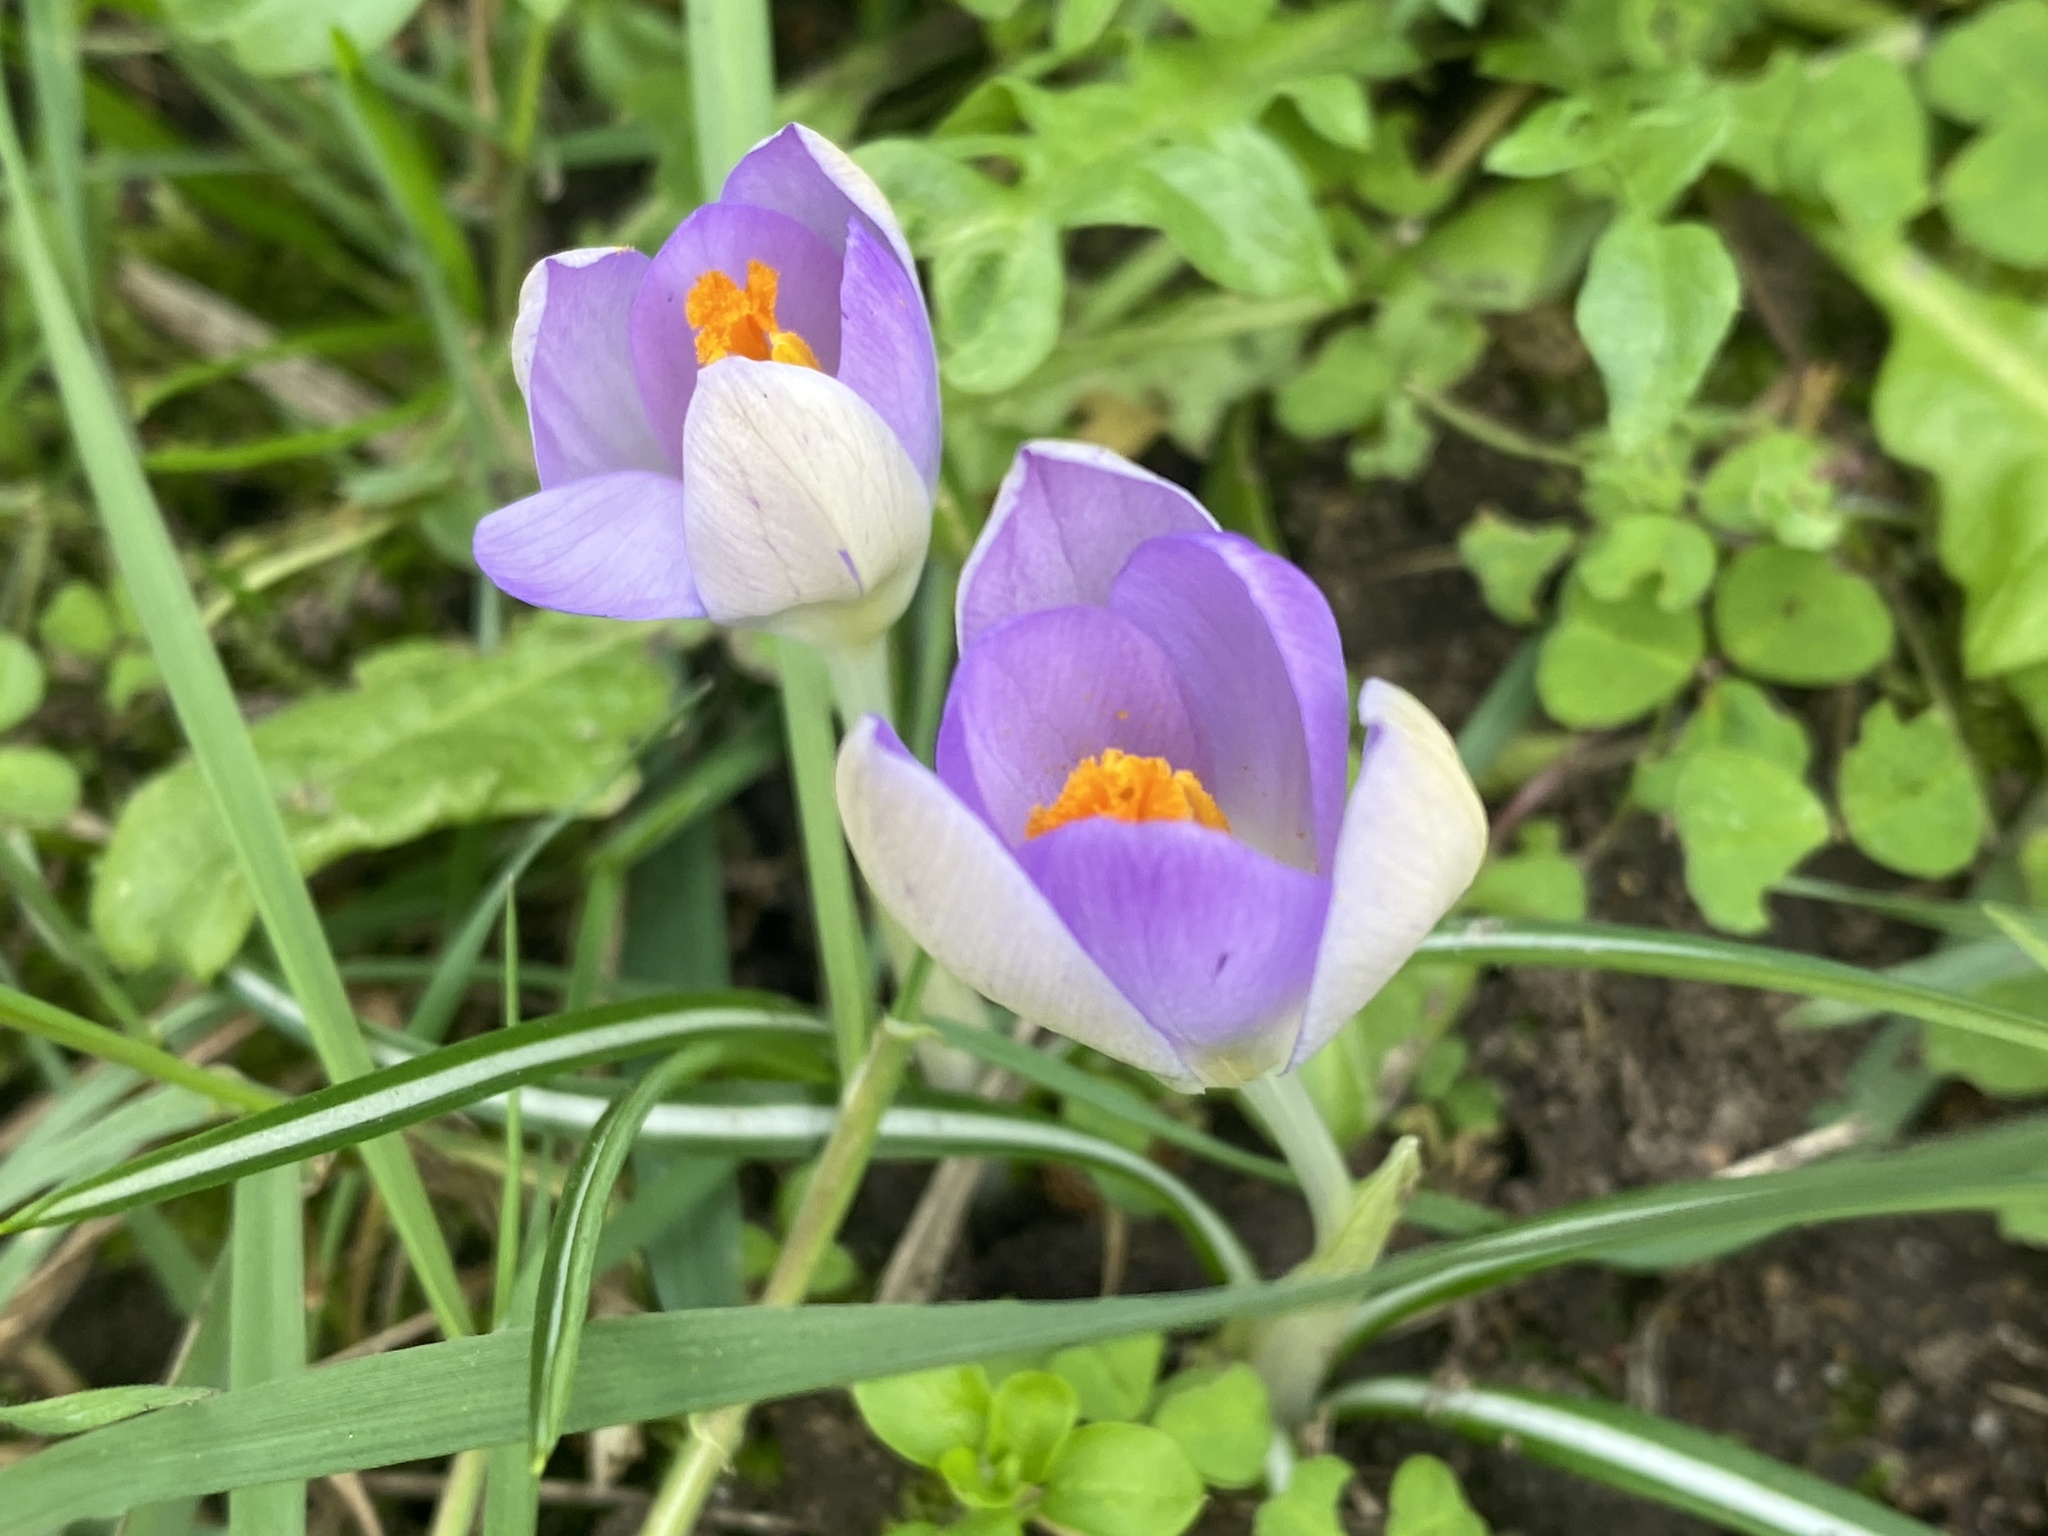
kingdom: Plantae
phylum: Tracheophyta
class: Liliopsida
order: Asparagales
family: Iridaceae
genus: Crocus
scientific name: Crocus tommasinianus
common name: Early crocus
